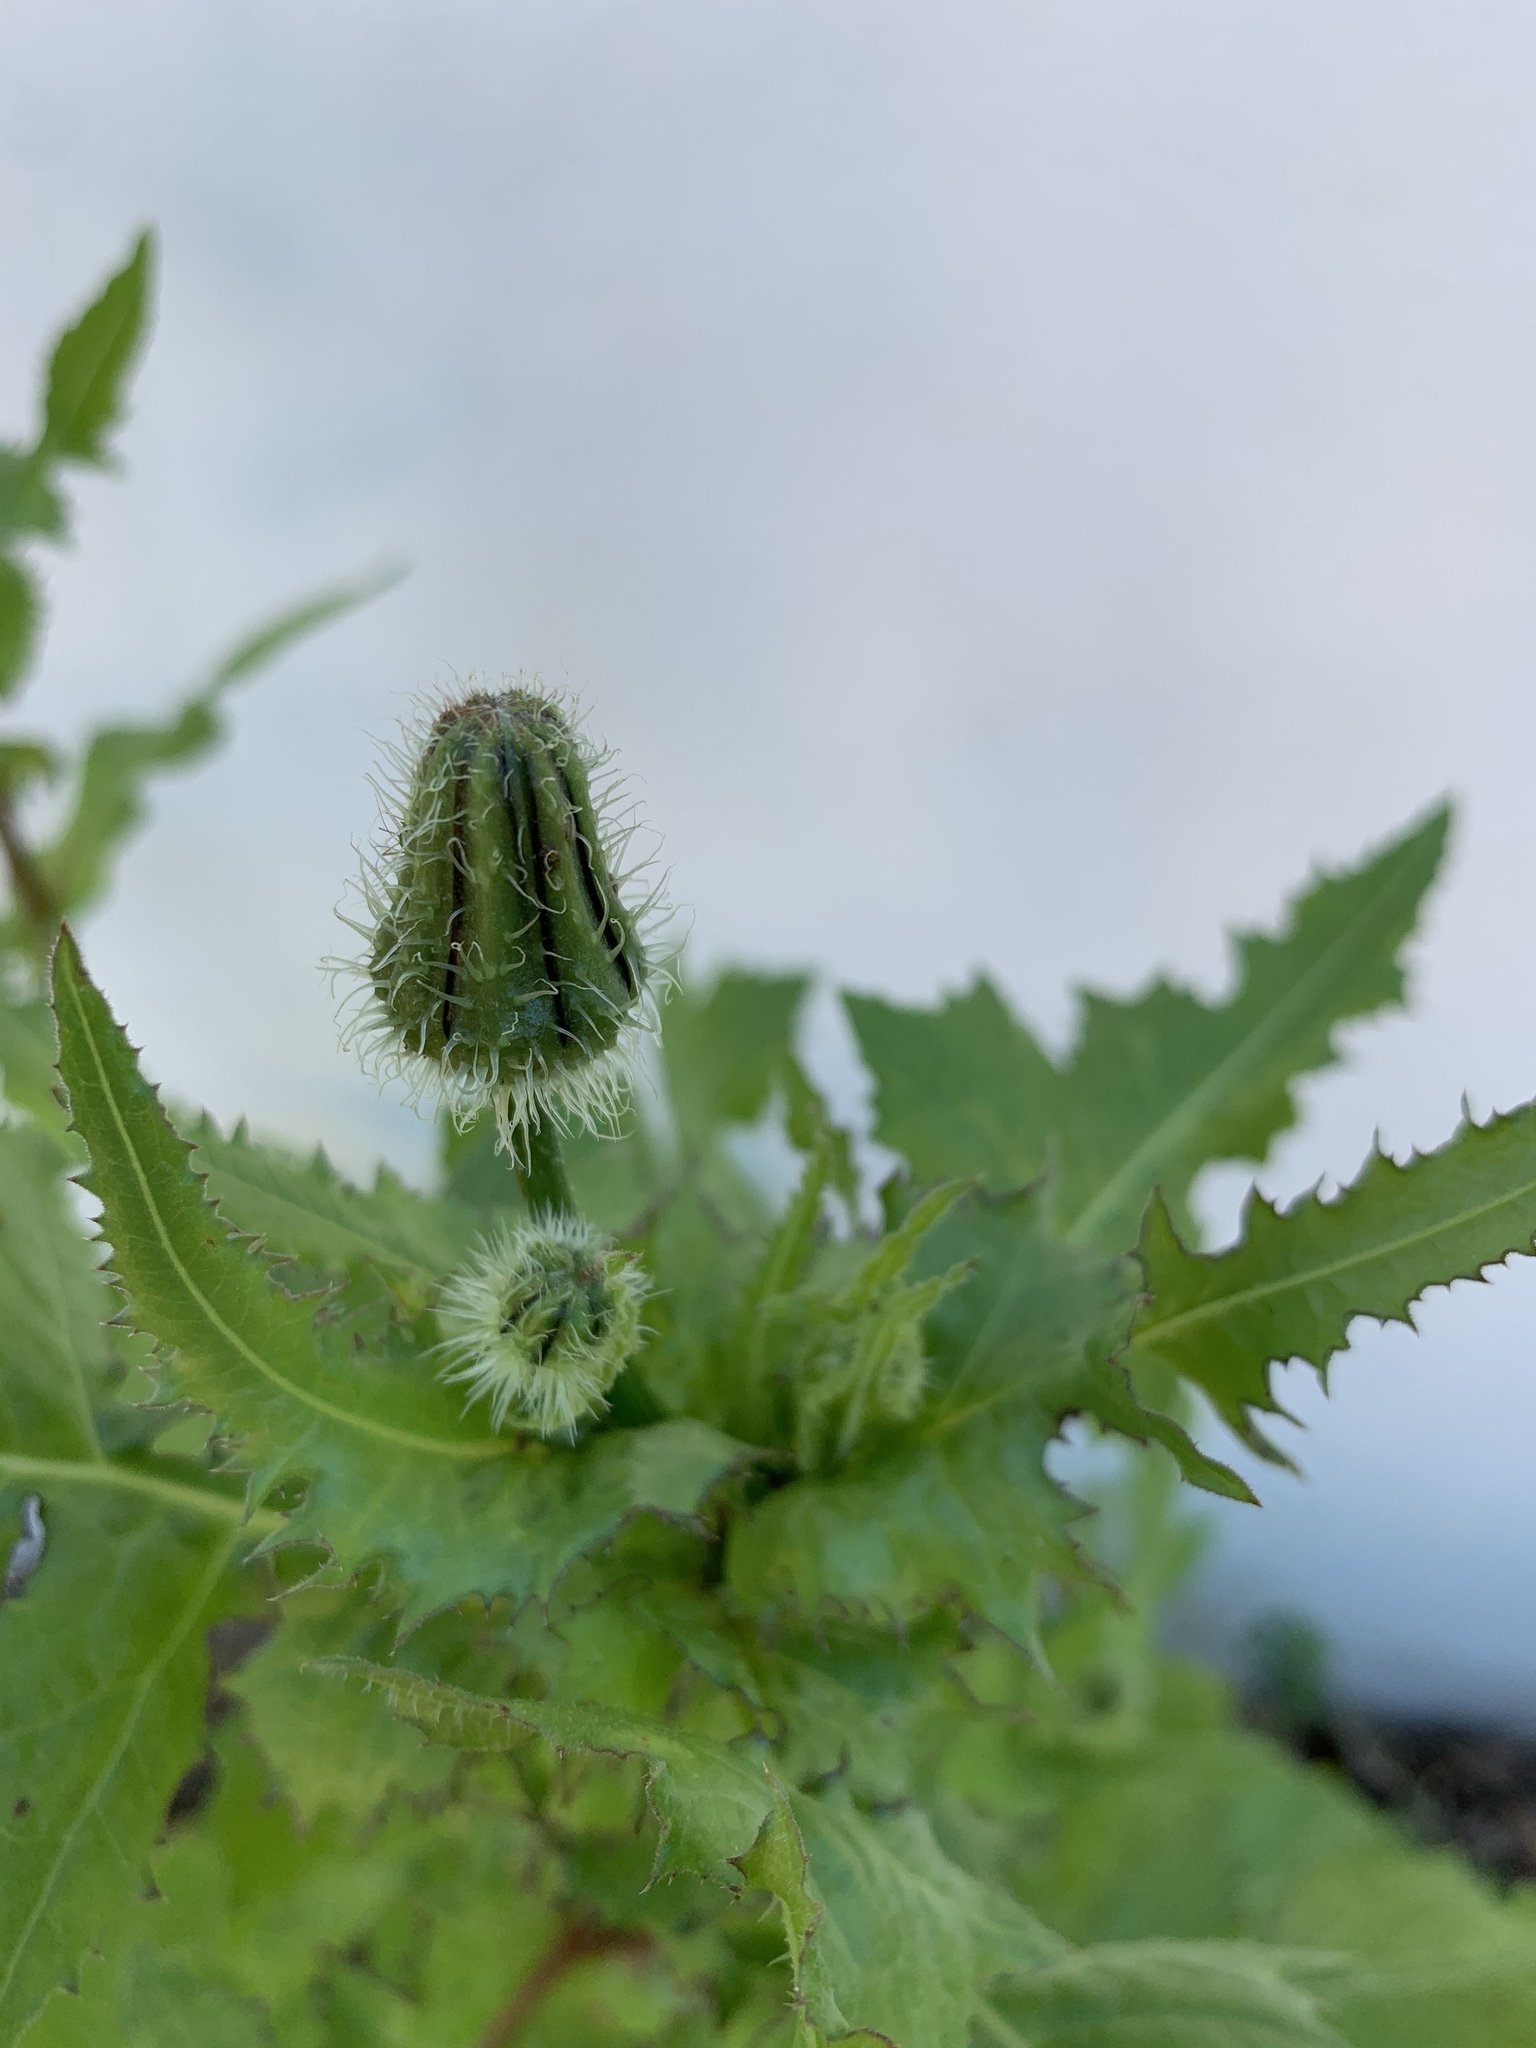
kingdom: Plantae
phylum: Tracheophyta
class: Magnoliopsida
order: Asterales
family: Asteraceae
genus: Urospermum
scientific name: Urospermum picroides
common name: False hawkbit
